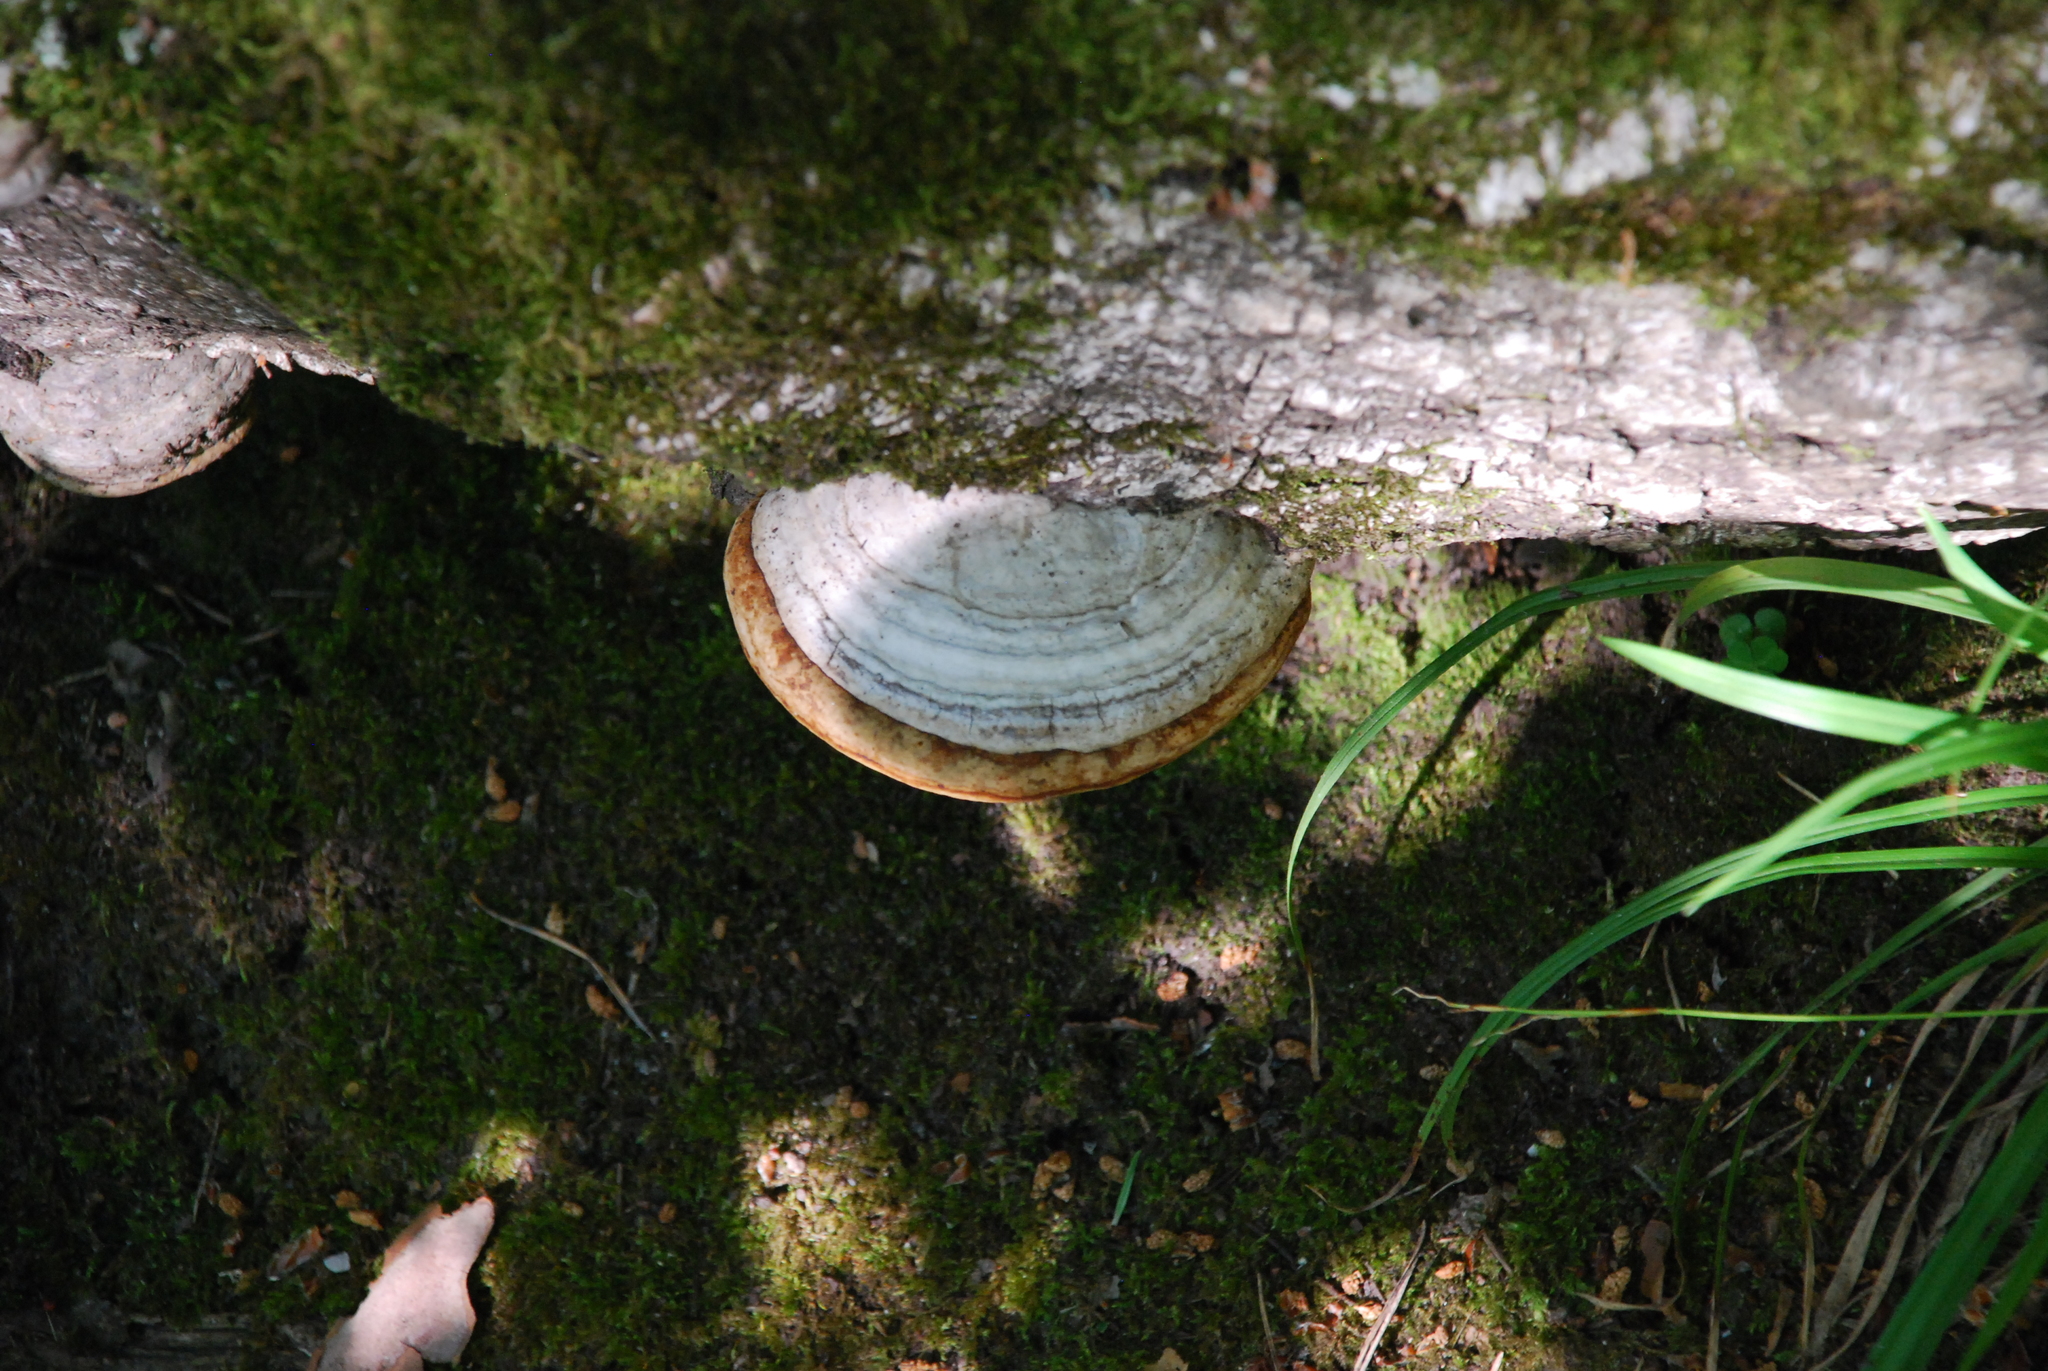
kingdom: Fungi
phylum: Basidiomycota
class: Agaricomycetes
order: Polyporales
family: Polyporaceae
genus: Fomes
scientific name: Fomes fomentarius
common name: Hoof fungus
